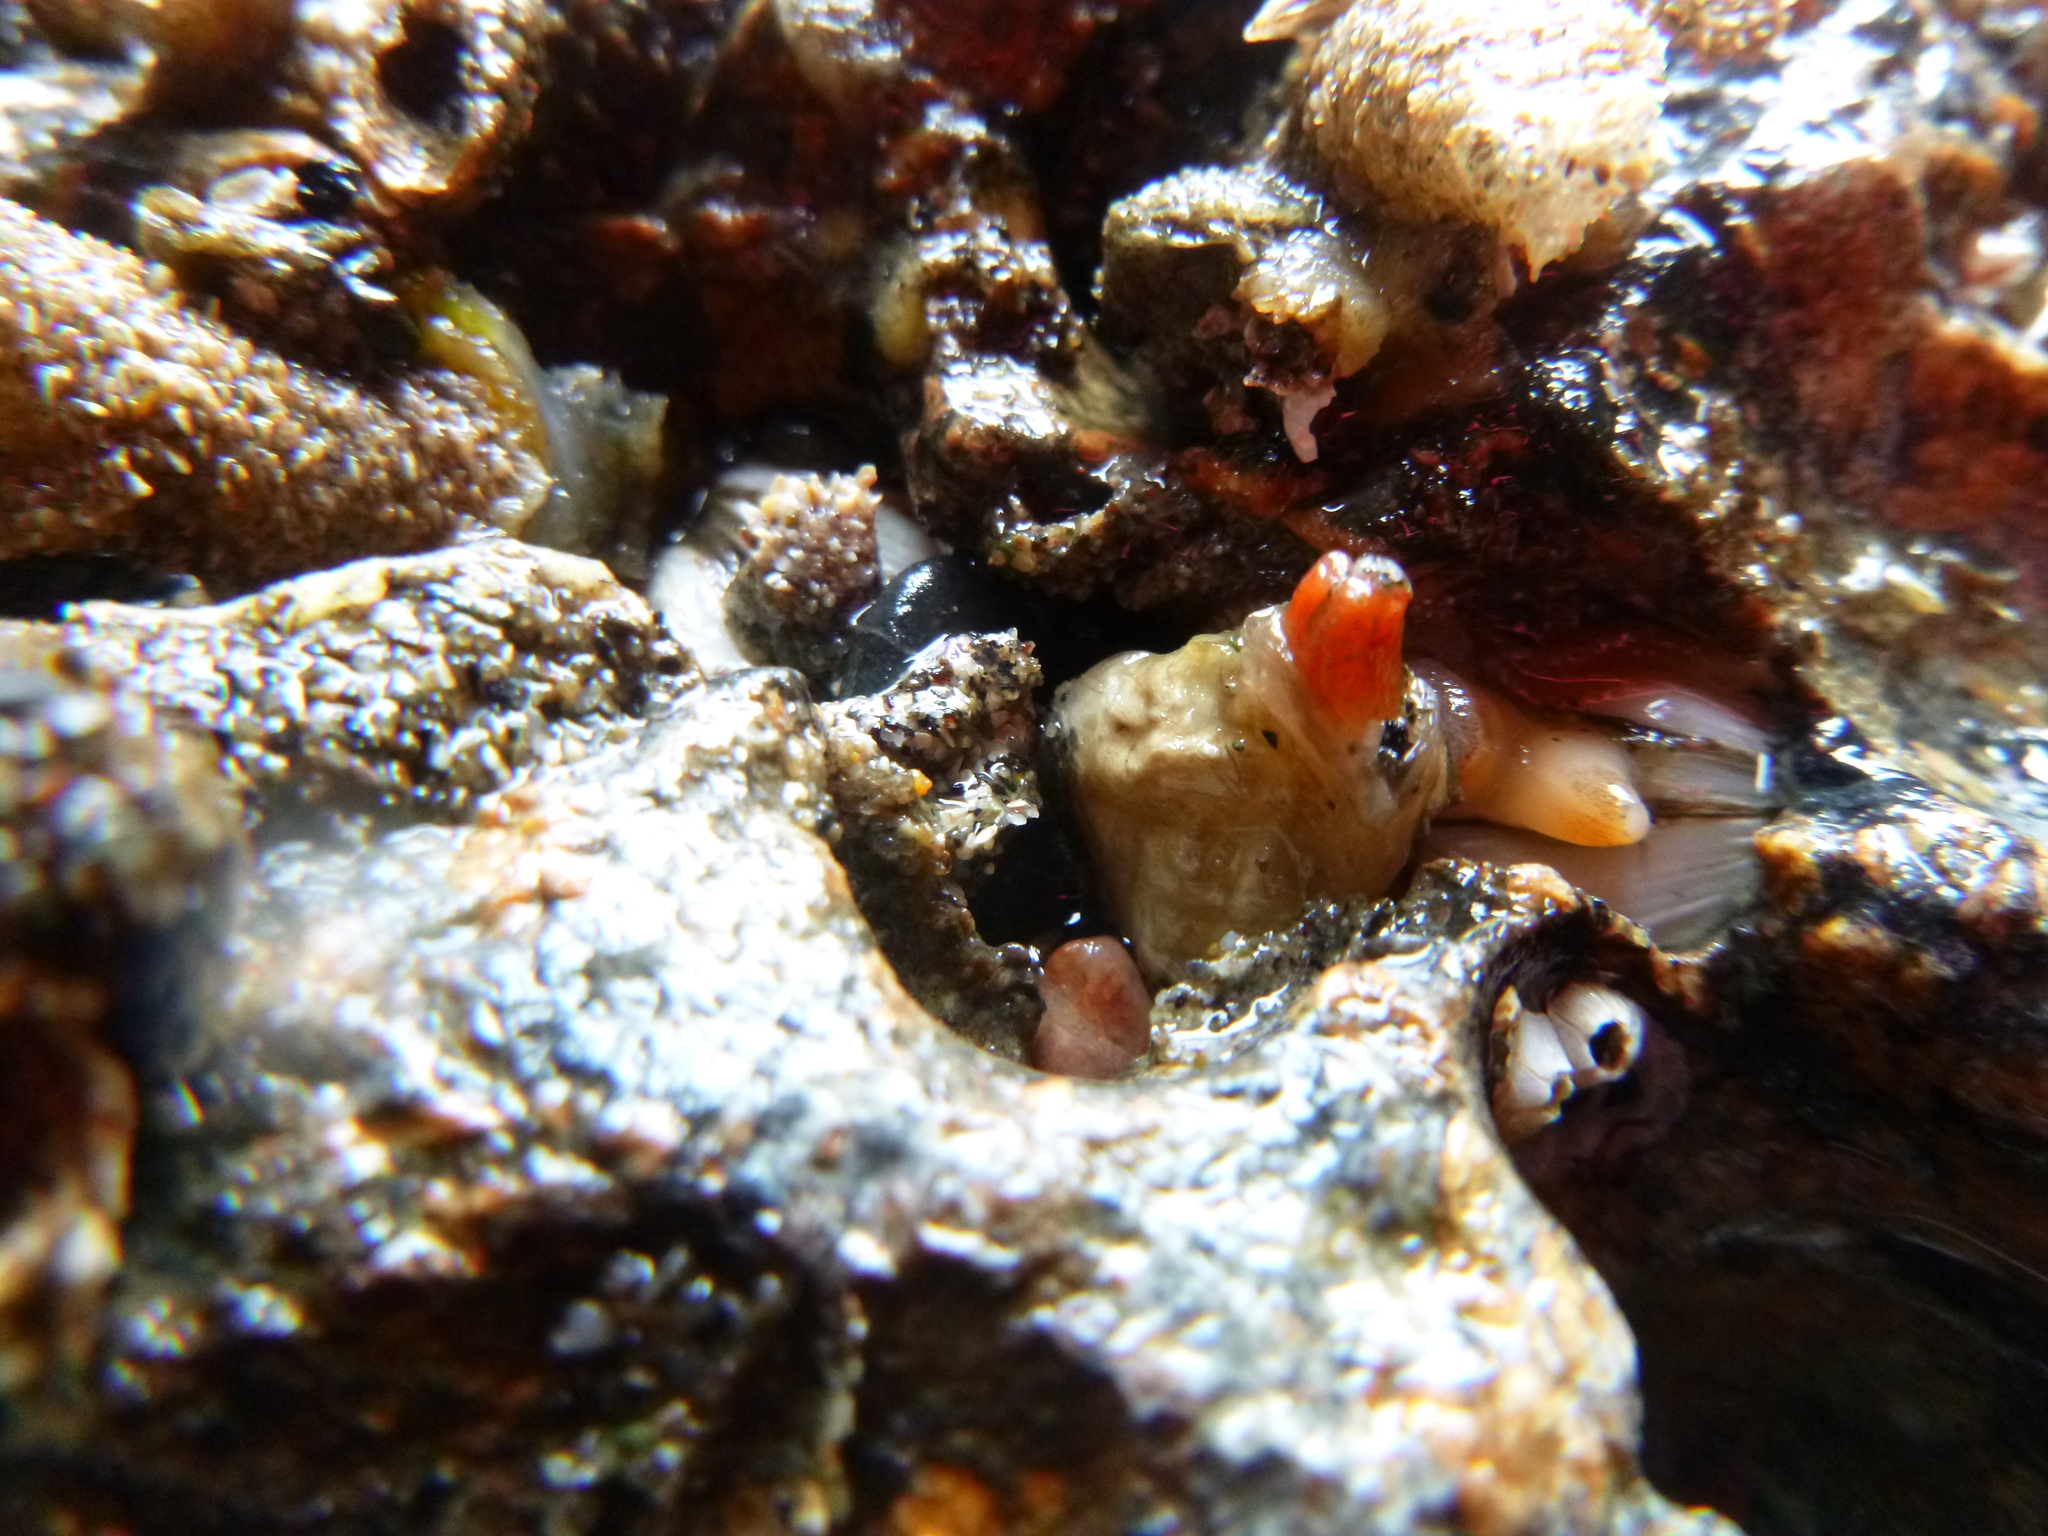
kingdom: Animalia
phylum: Mollusca
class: Bivalvia
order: Adapedonta
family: Hiatellidae
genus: Hiatella
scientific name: Hiatella arctica
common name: Arctic hiatella
